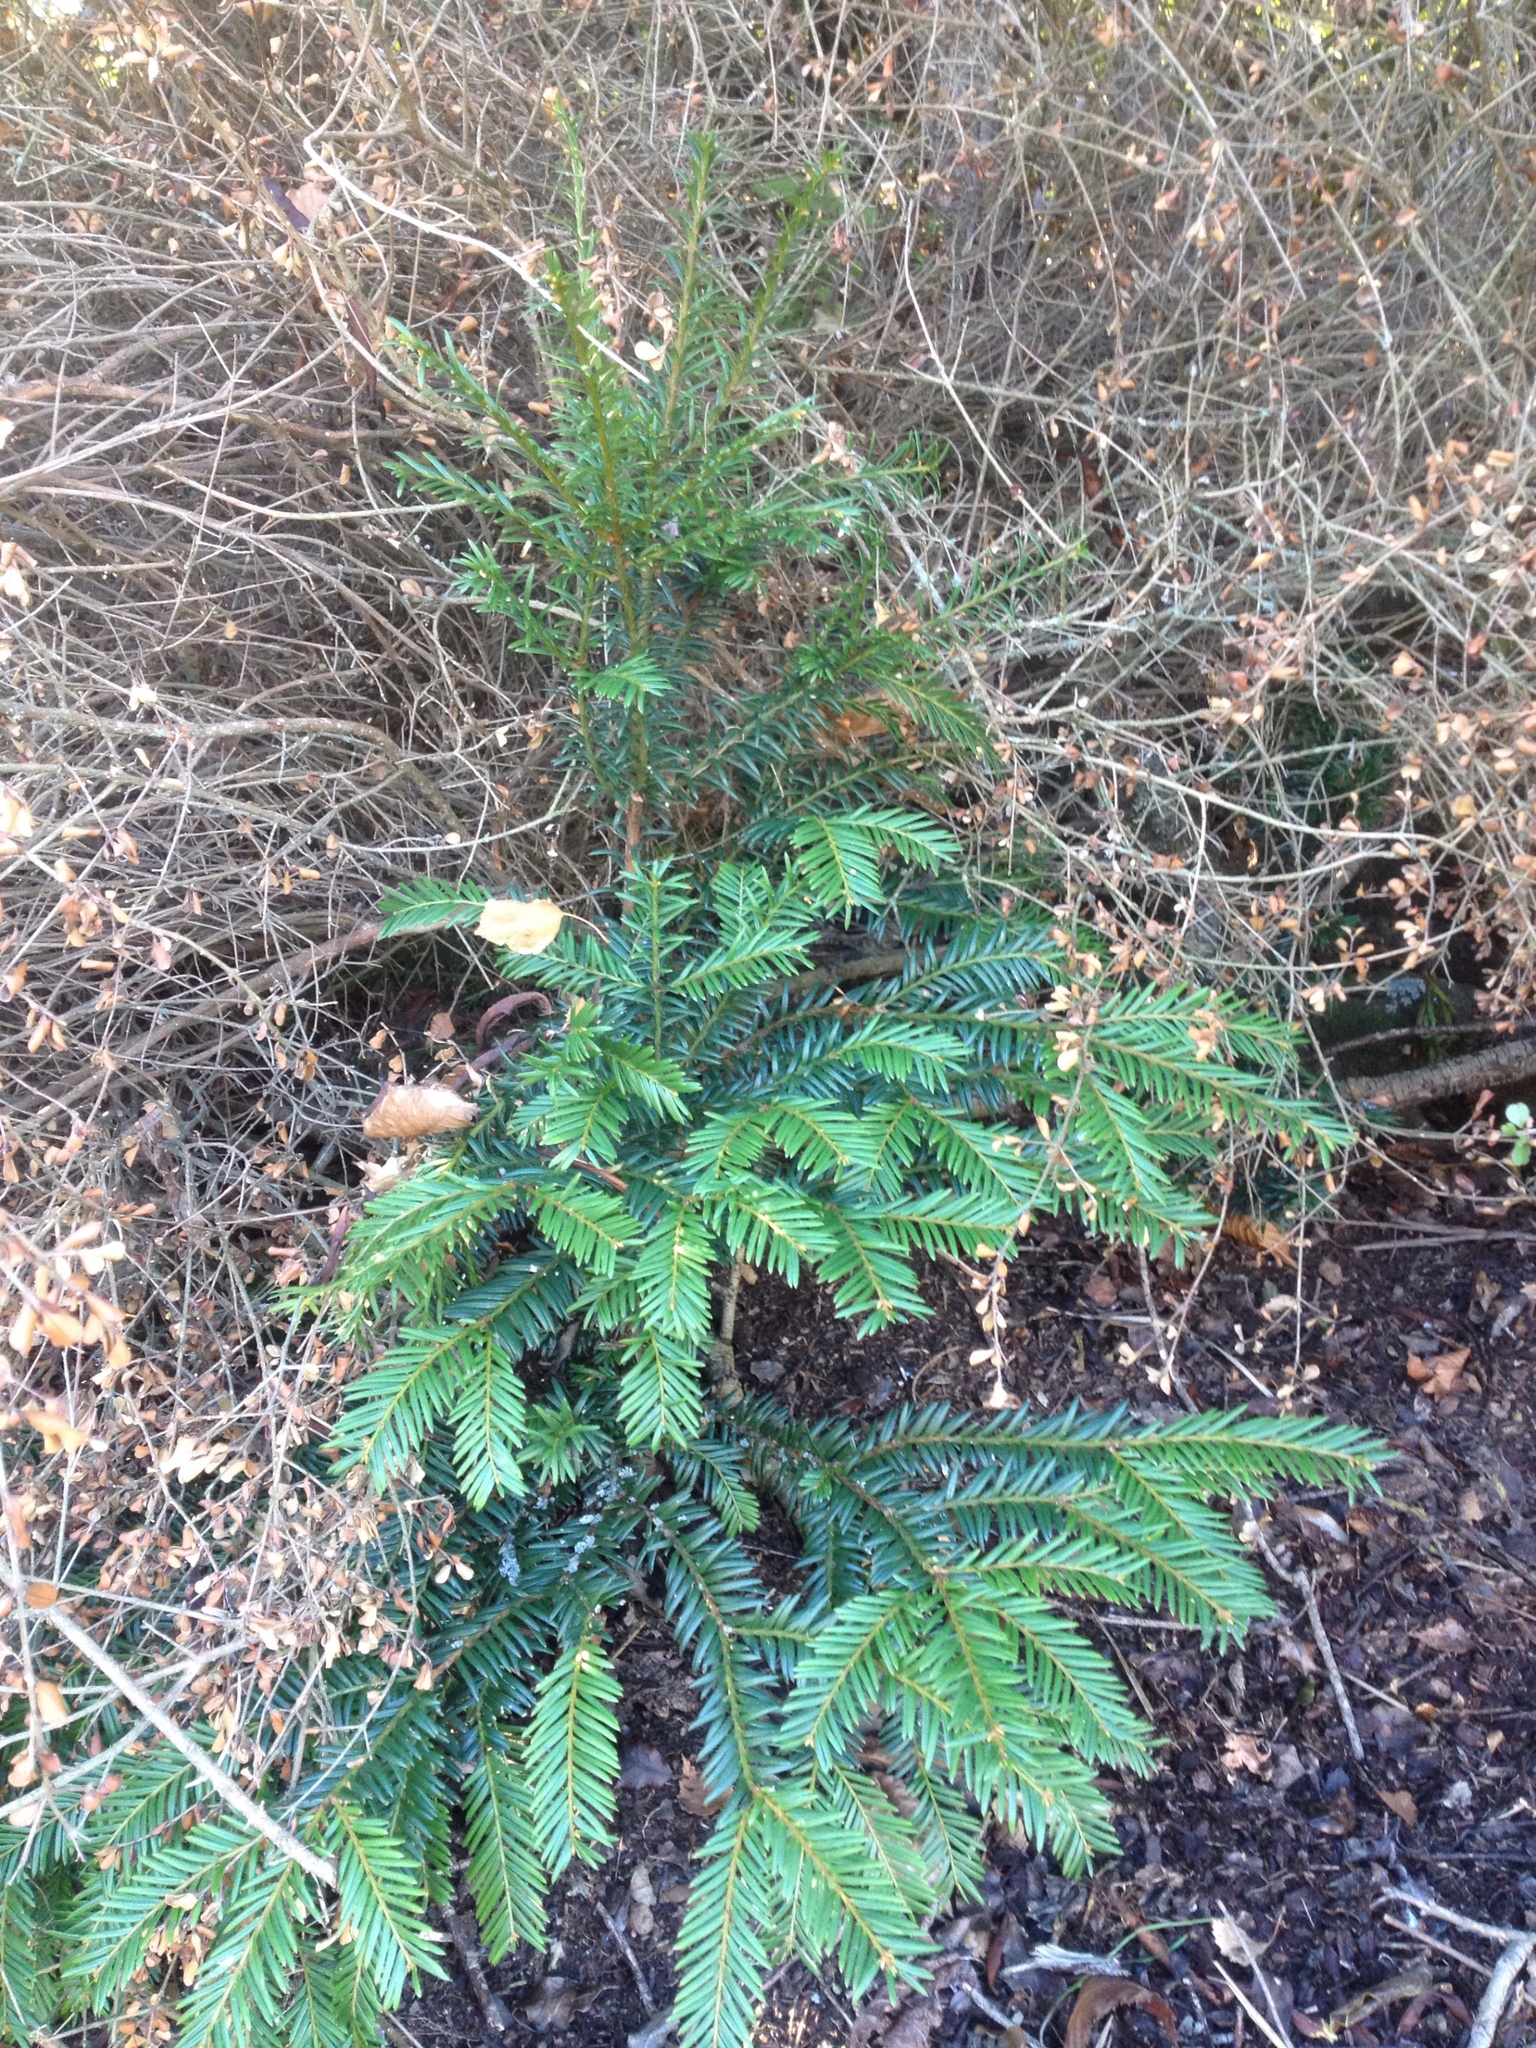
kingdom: Plantae
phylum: Tracheophyta
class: Pinopsida
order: Pinales
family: Taxaceae
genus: Taxus
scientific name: Taxus baccata
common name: Yew
